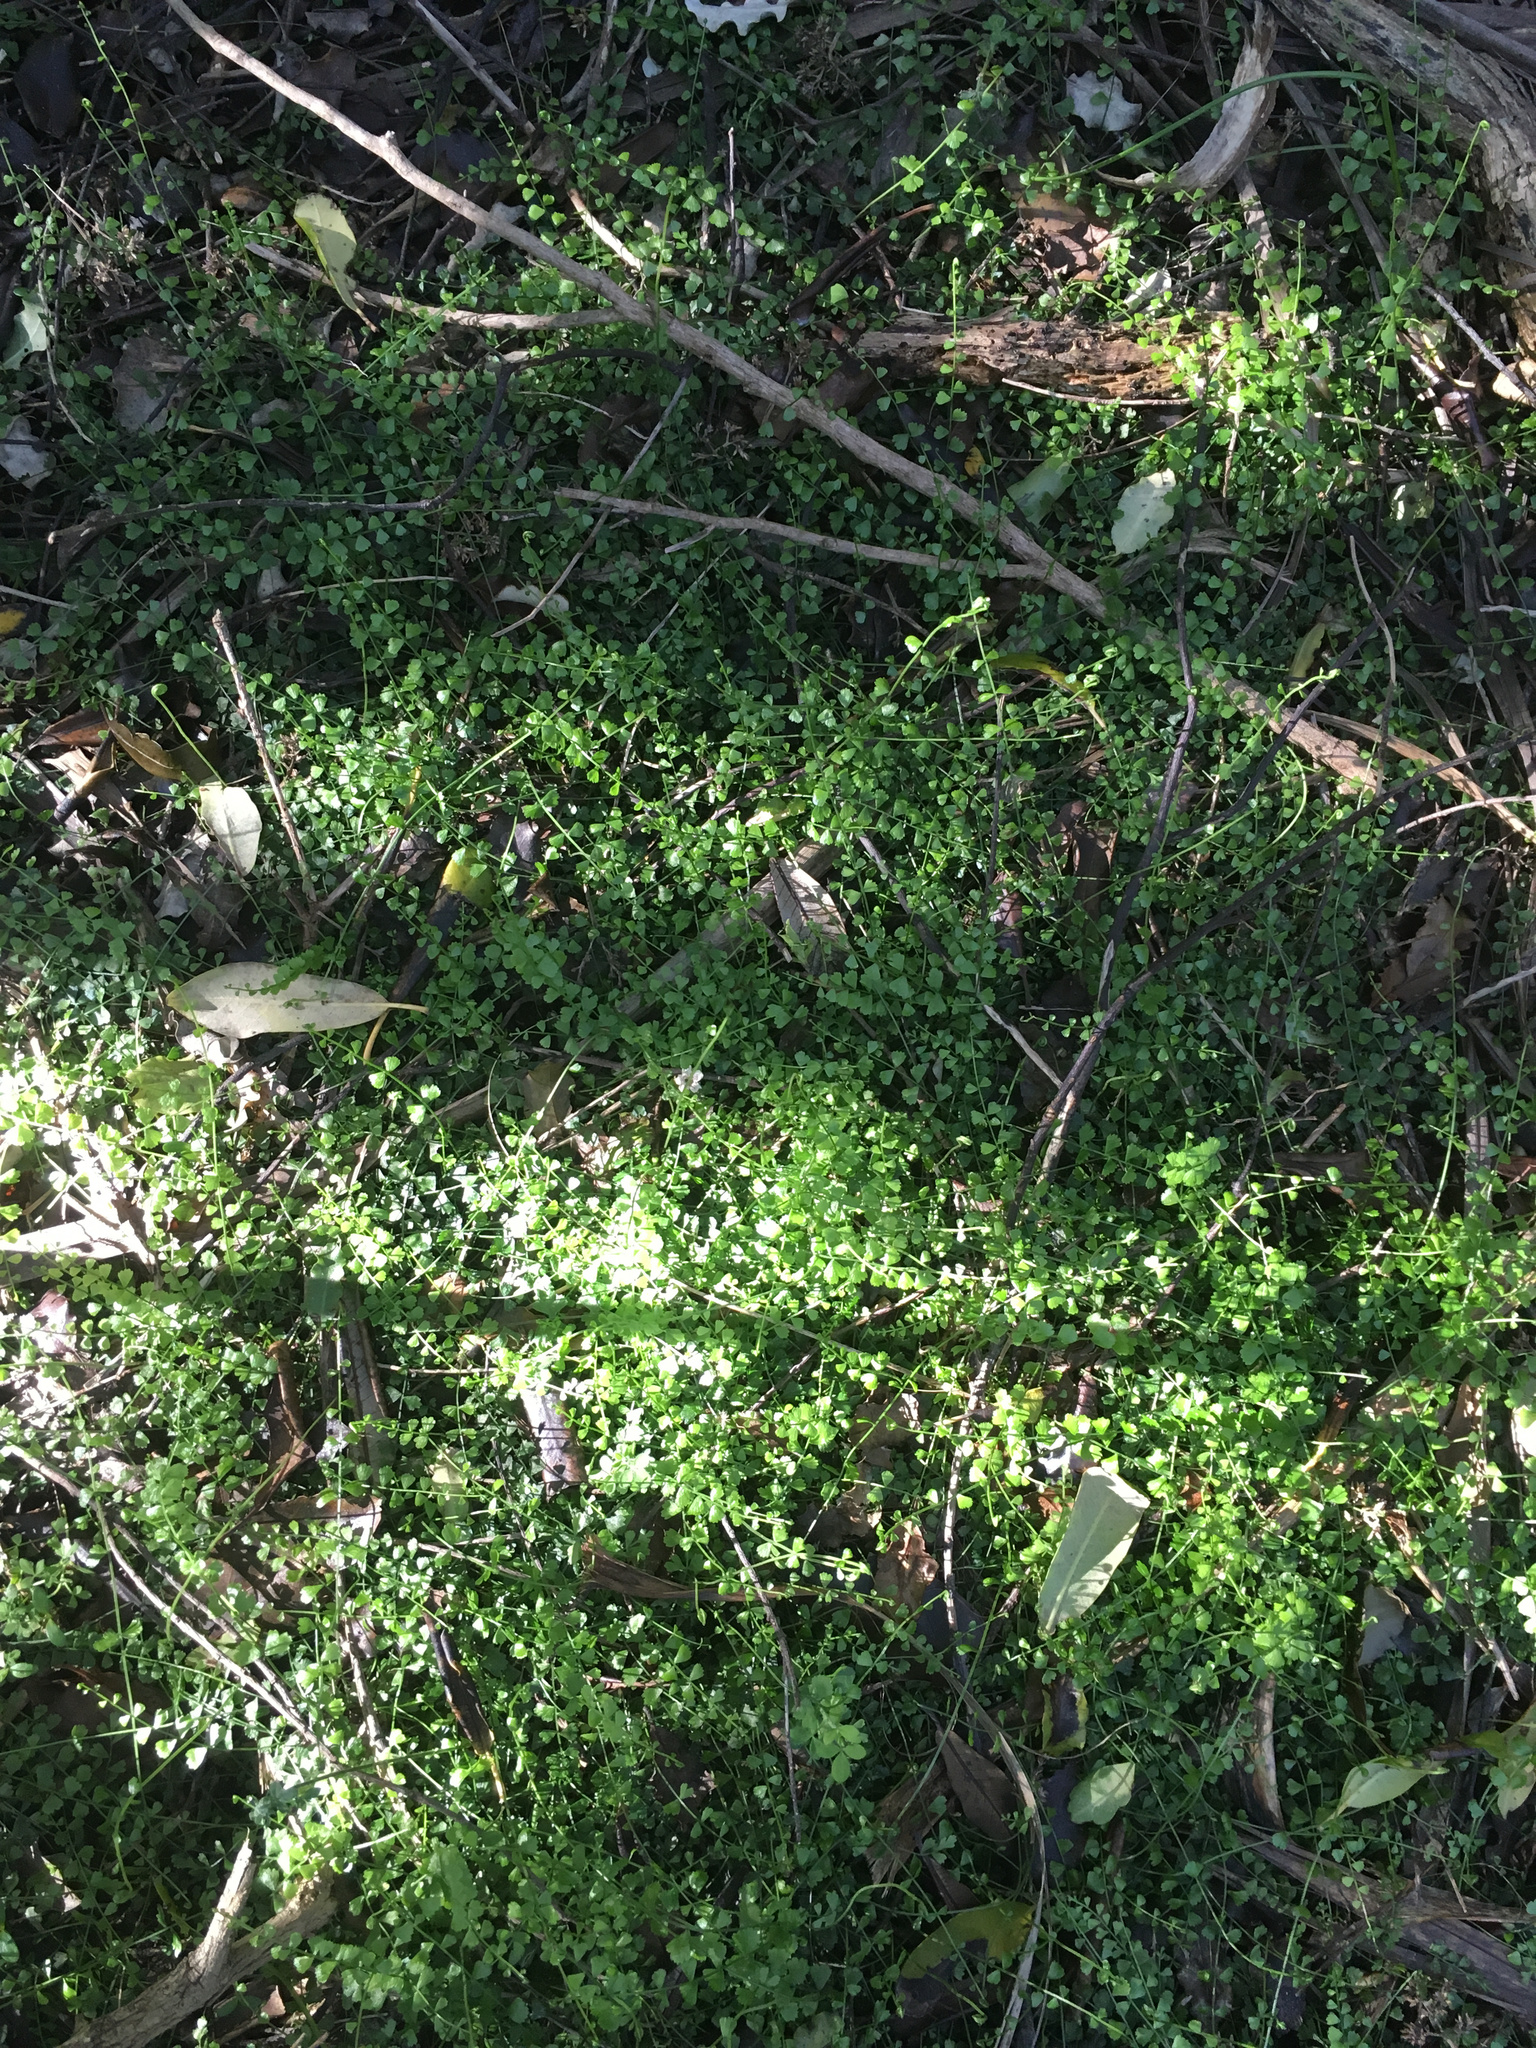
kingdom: Plantae
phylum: Tracheophyta
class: Polypodiopsida
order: Polypodiales
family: Aspleniaceae
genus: Asplenium
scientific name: Asplenium flabellifolium
